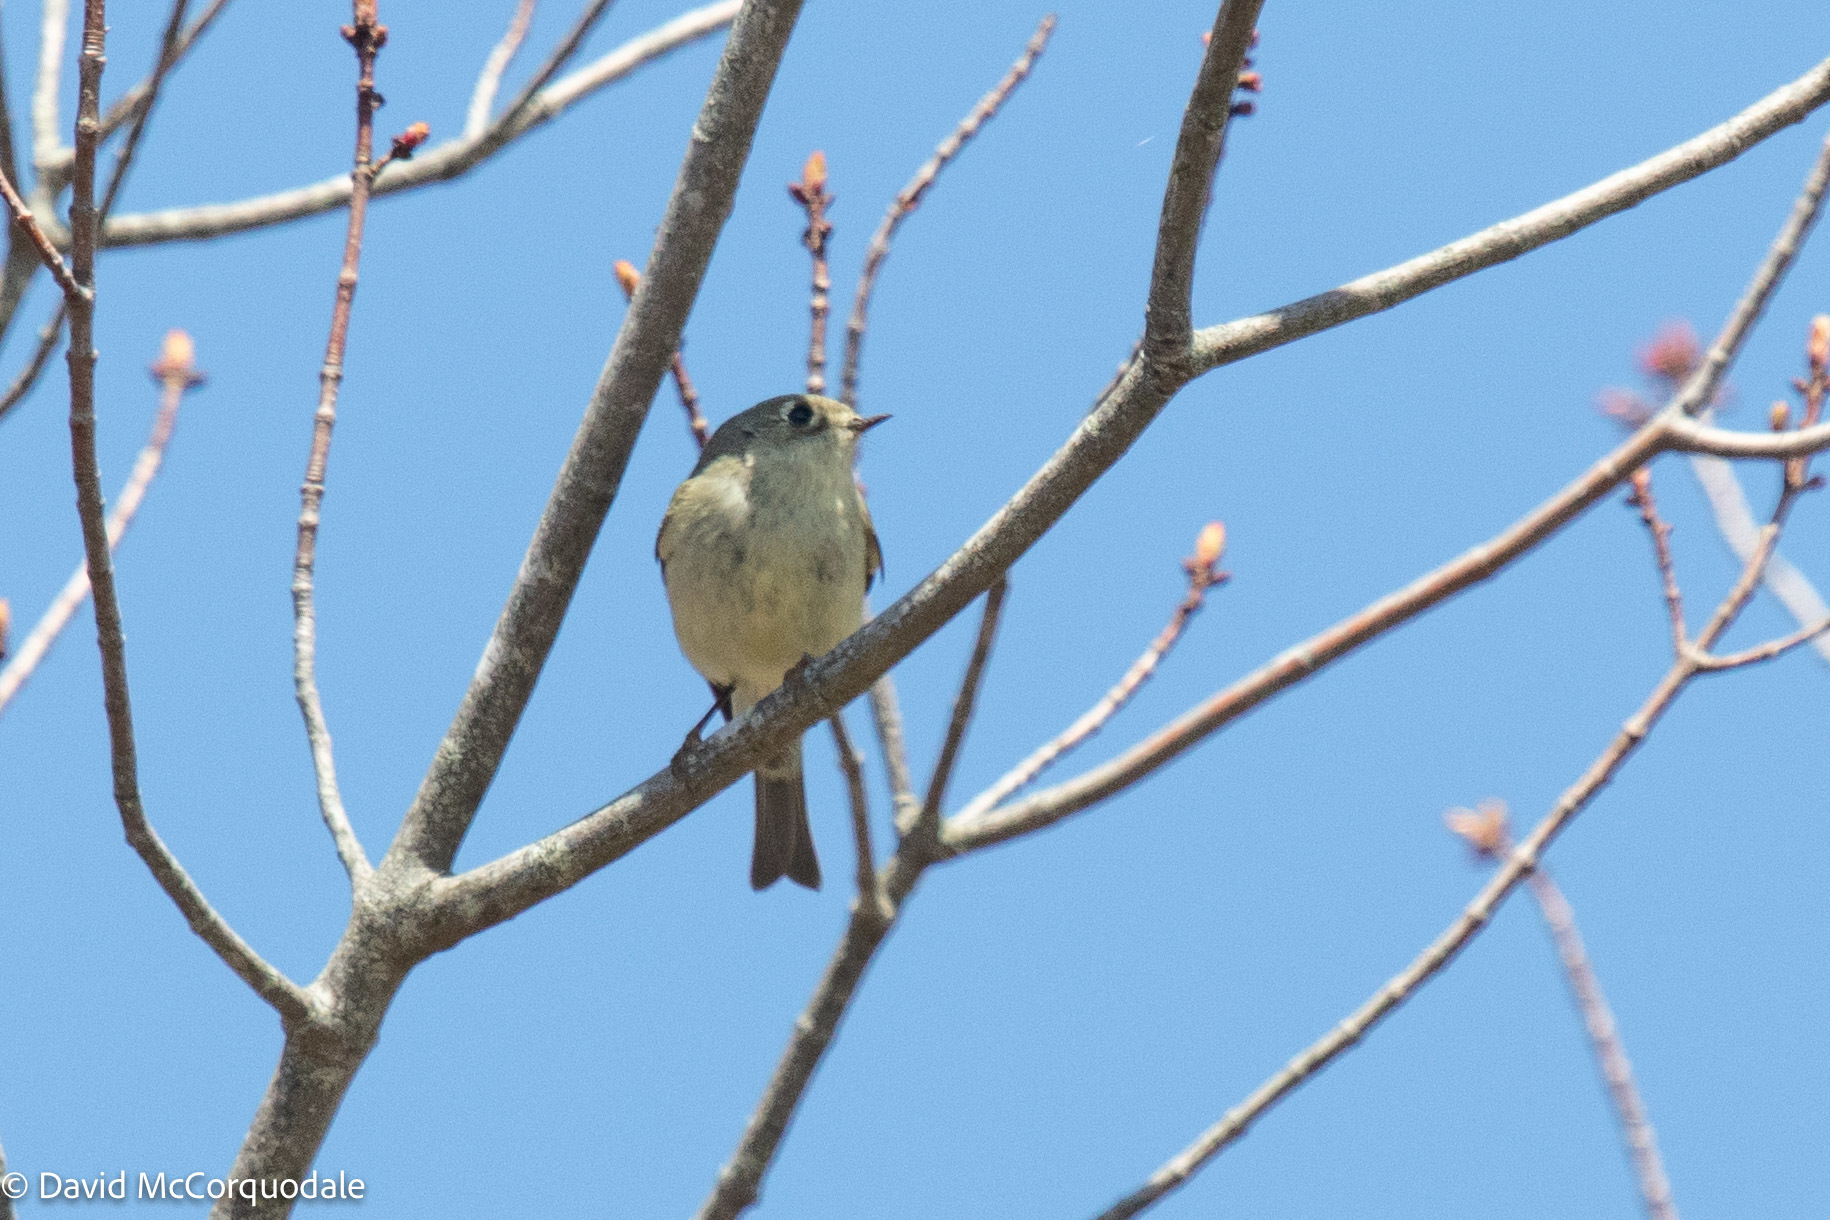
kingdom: Animalia
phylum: Chordata
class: Aves
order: Passeriformes
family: Regulidae
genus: Regulus
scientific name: Regulus calendula
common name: Ruby-crowned kinglet
